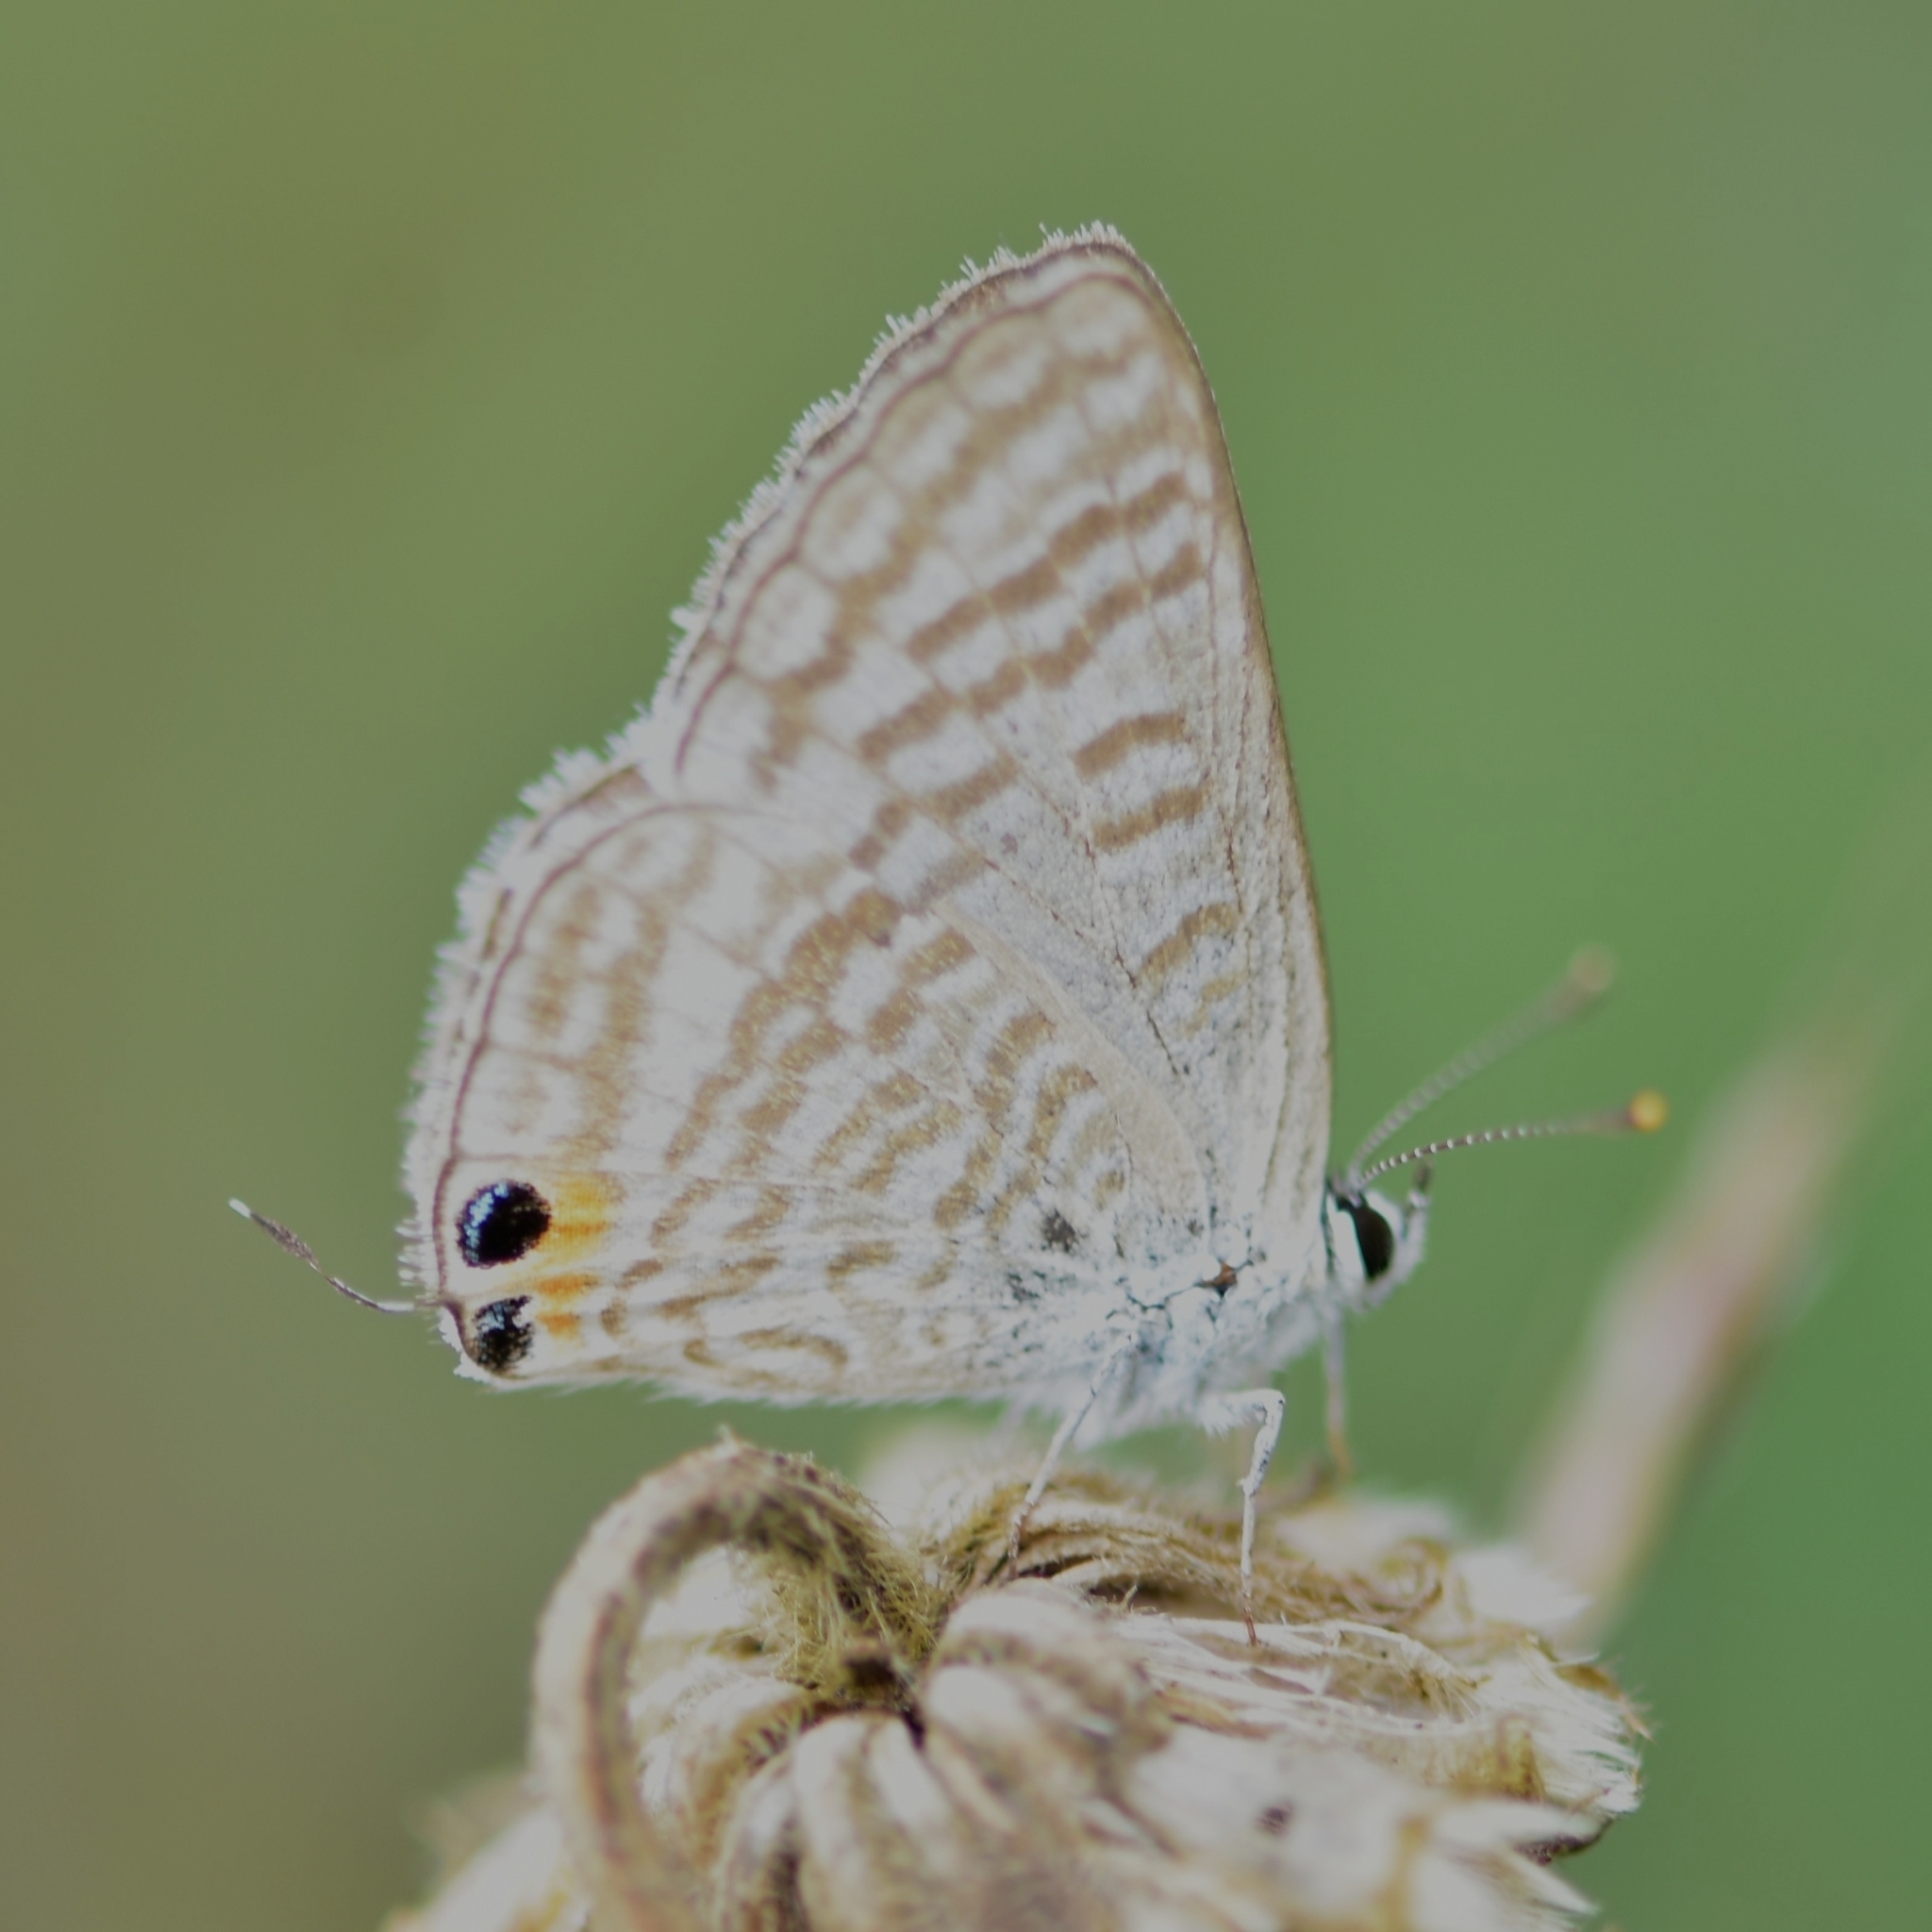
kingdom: Animalia
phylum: Arthropoda
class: Insecta
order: Lepidoptera
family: Lycaenidae
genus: Lampides
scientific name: Lampides boeticus
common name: Long-tailed blue
